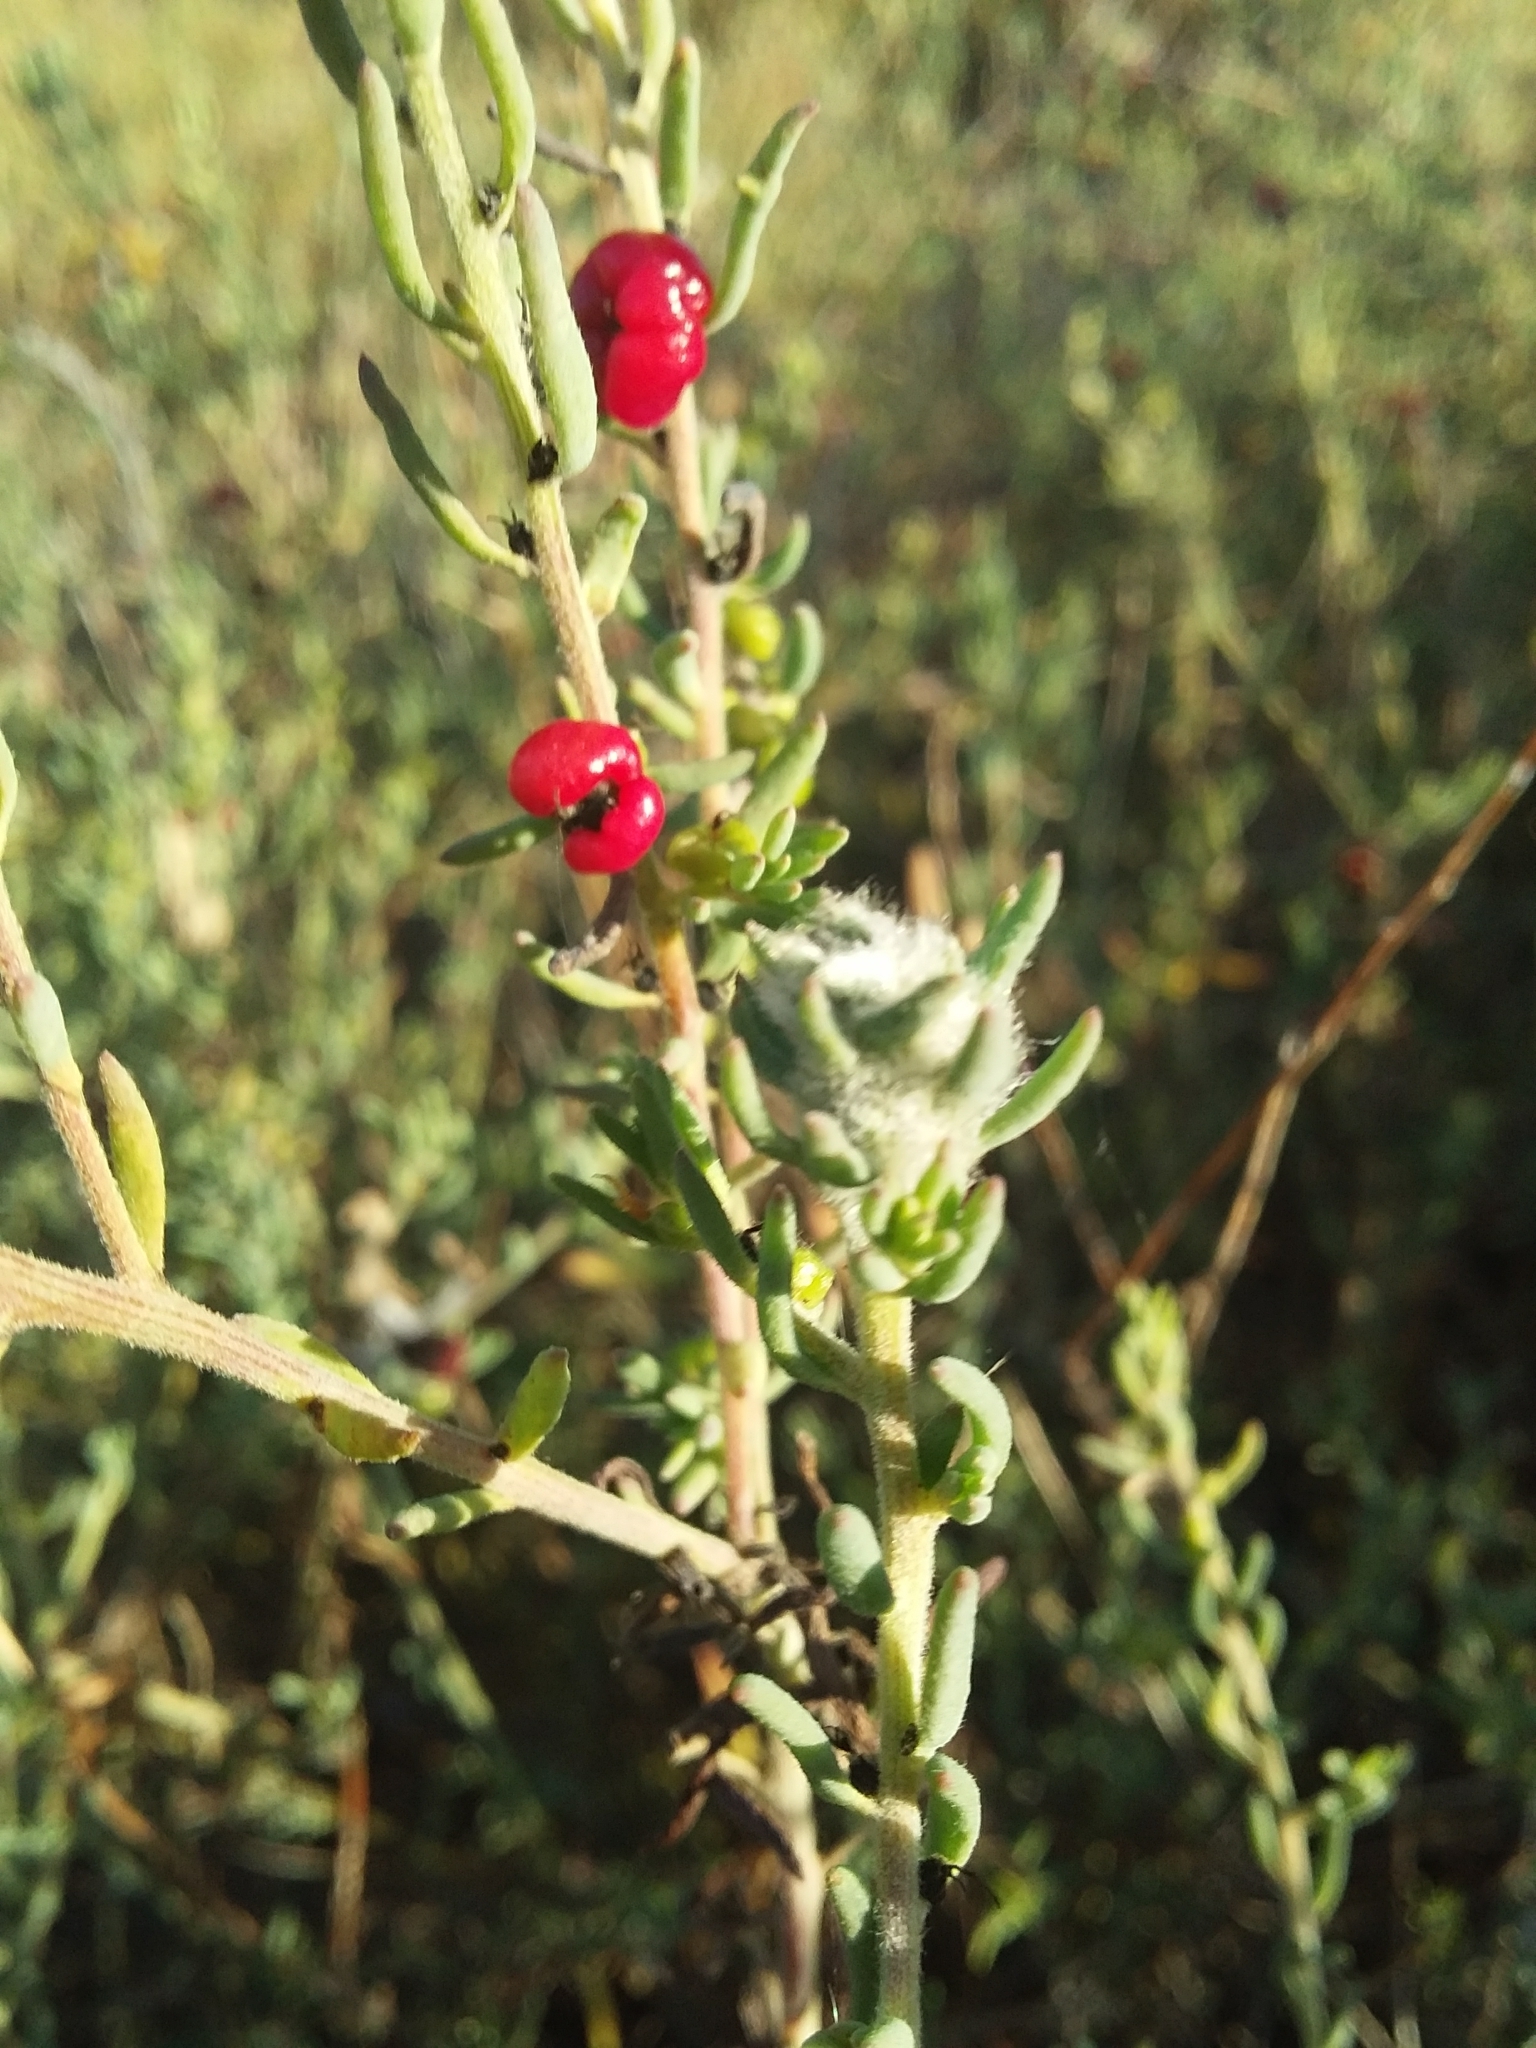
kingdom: Animalia
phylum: Arthropoda
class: Insecta
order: Diptera
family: Cecidomyiidae
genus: Asphondylia
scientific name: Asphondylia tonsura
